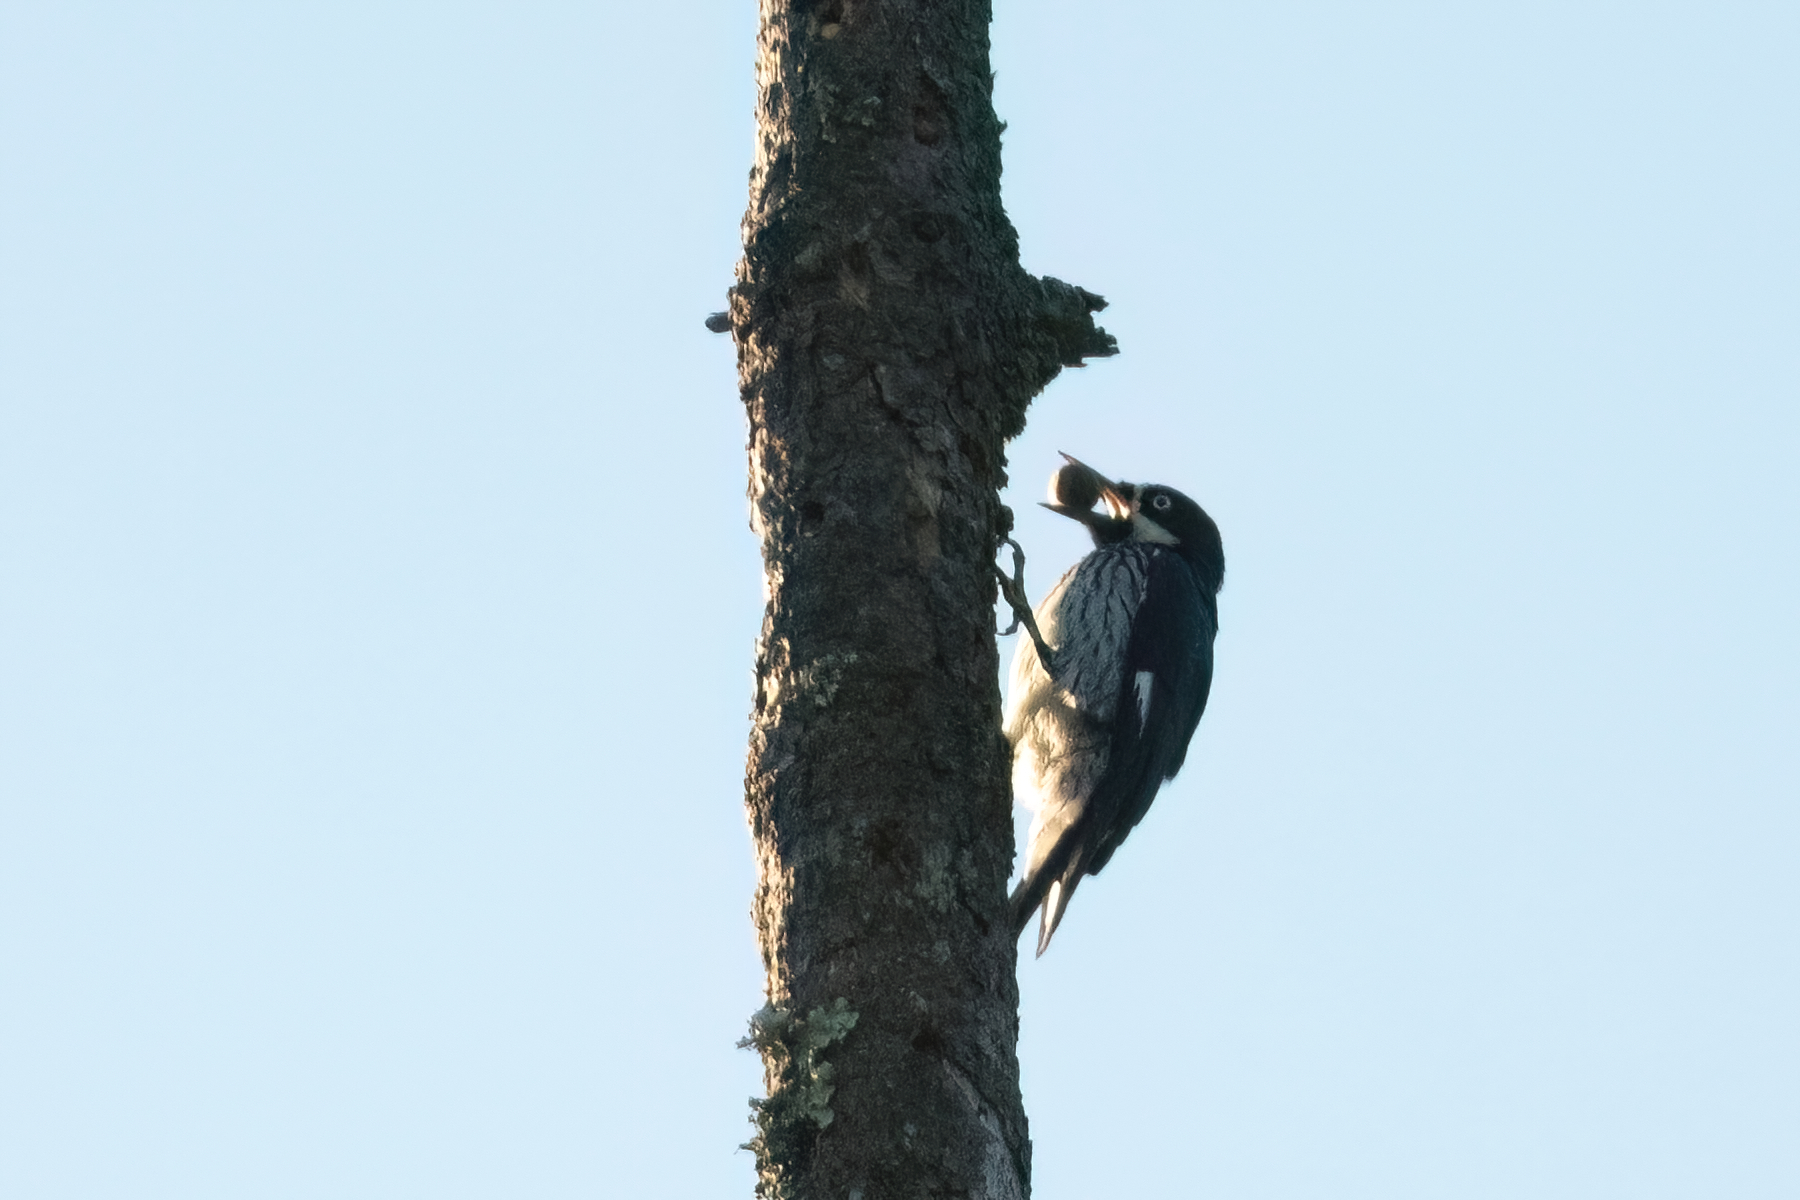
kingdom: Animalia
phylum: Chordata
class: Aves
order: Piciformes
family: Picidae
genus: Melanerpes
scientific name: Melanerpes formicivorus
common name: Acorn woodpecker
